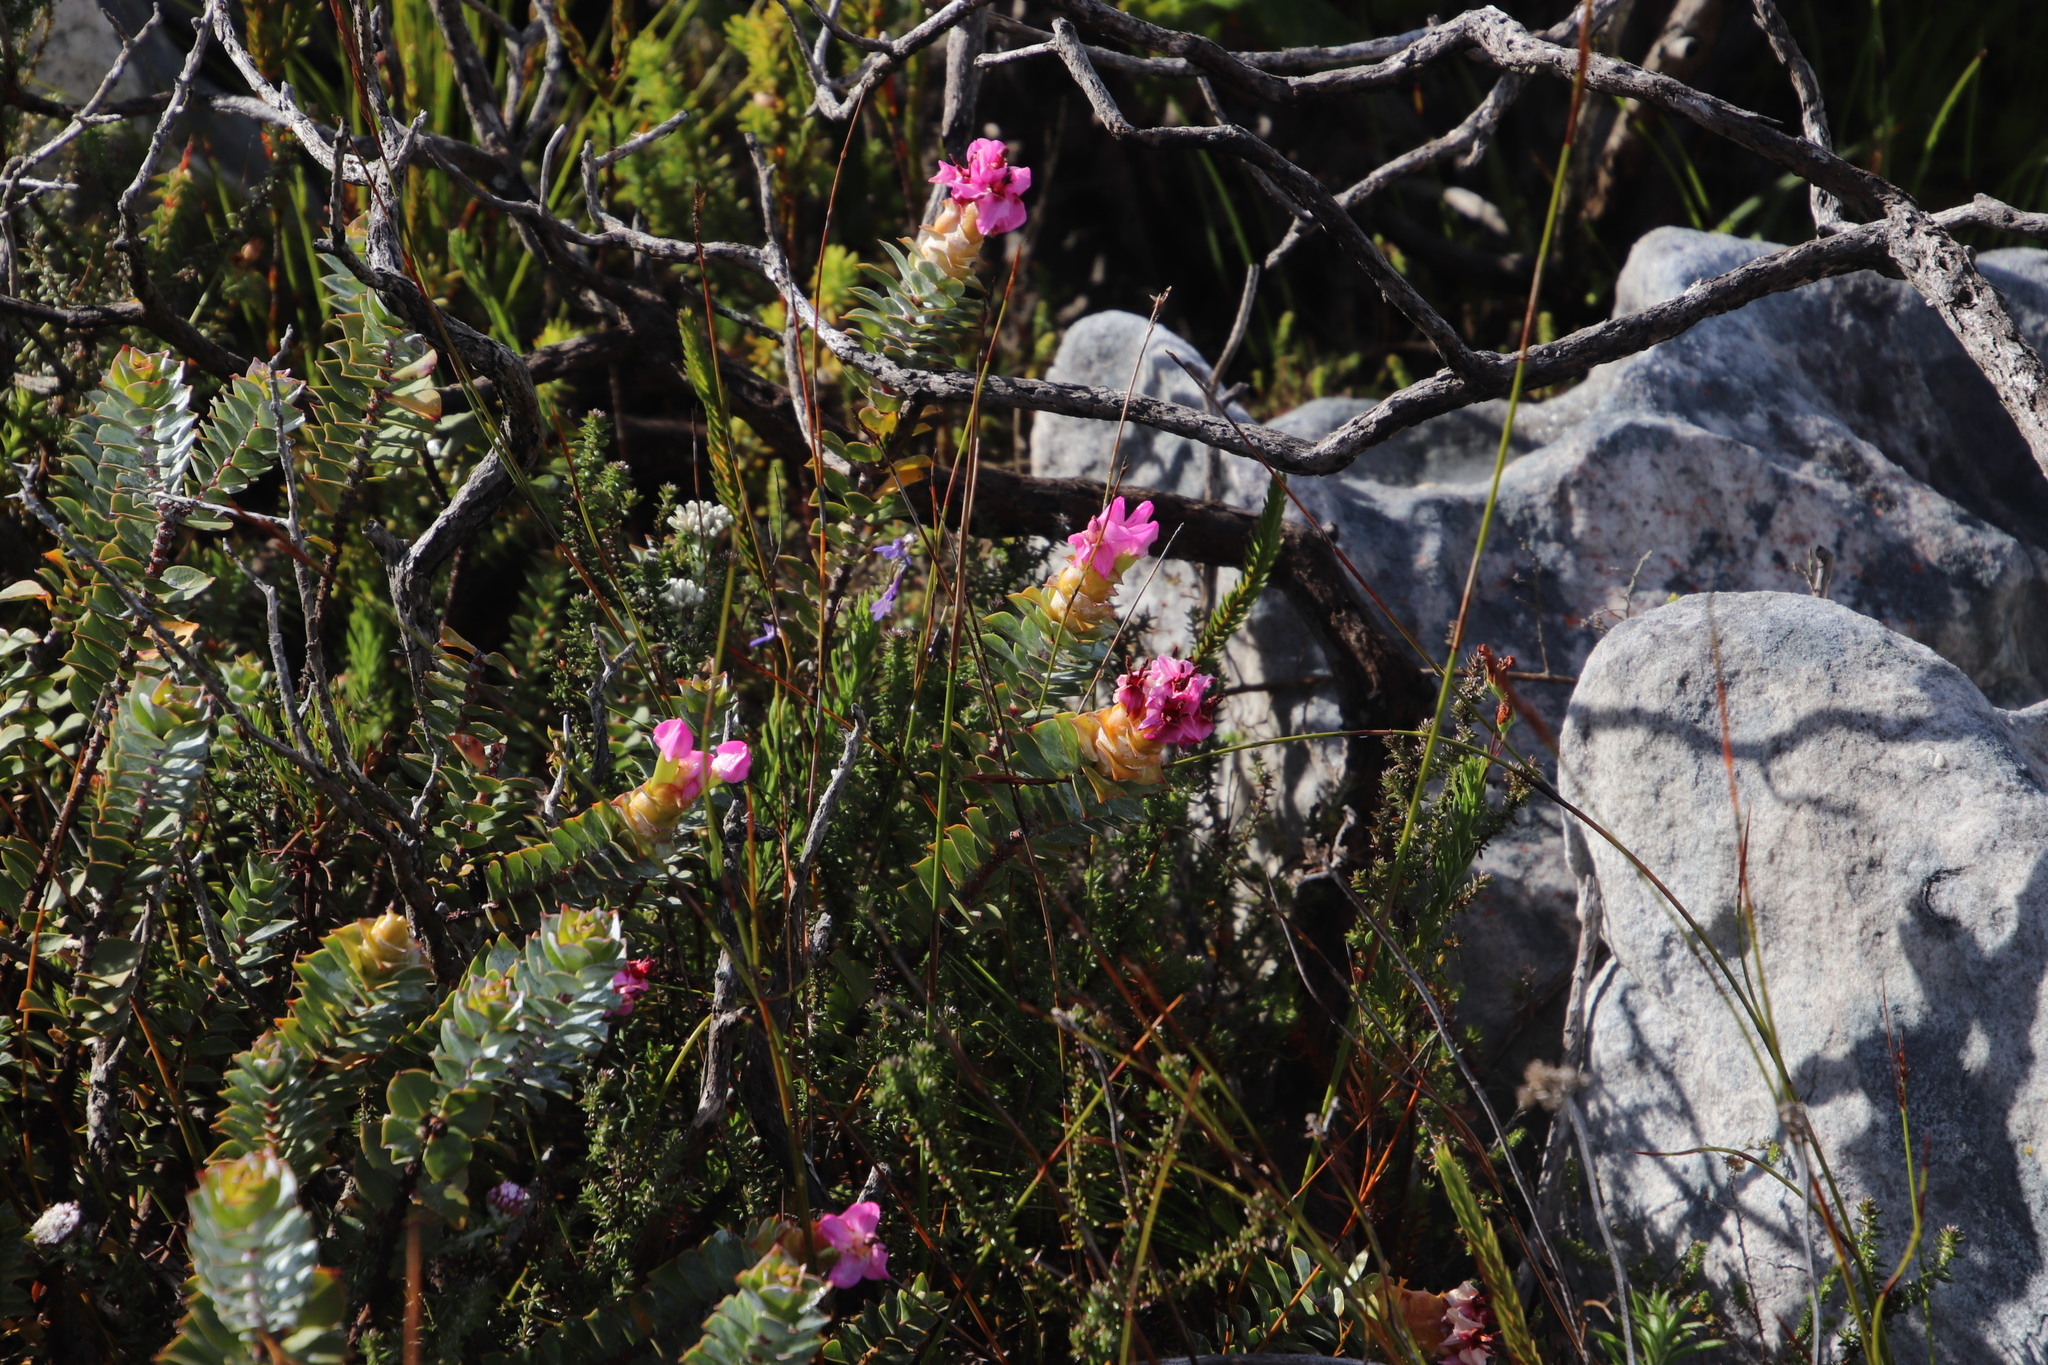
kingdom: Plantae
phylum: Tracheophyta
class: Magnoliopsida
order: Myrtales
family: Penaeaceae
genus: Saltera
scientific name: Saltera sarcocolla
